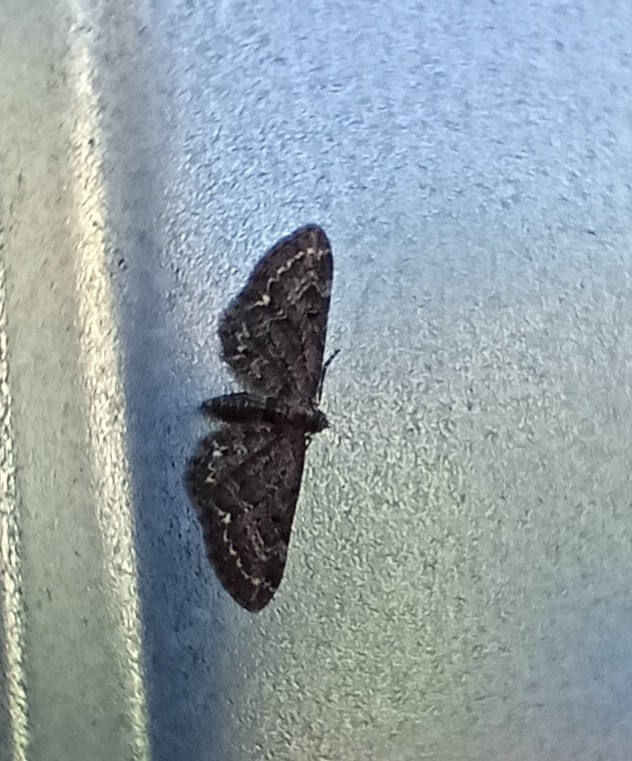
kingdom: Animalia
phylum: Arthropoda
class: Insecta
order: Lepidoptera
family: Geometridae
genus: Eupithecia
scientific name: Eupithecia
